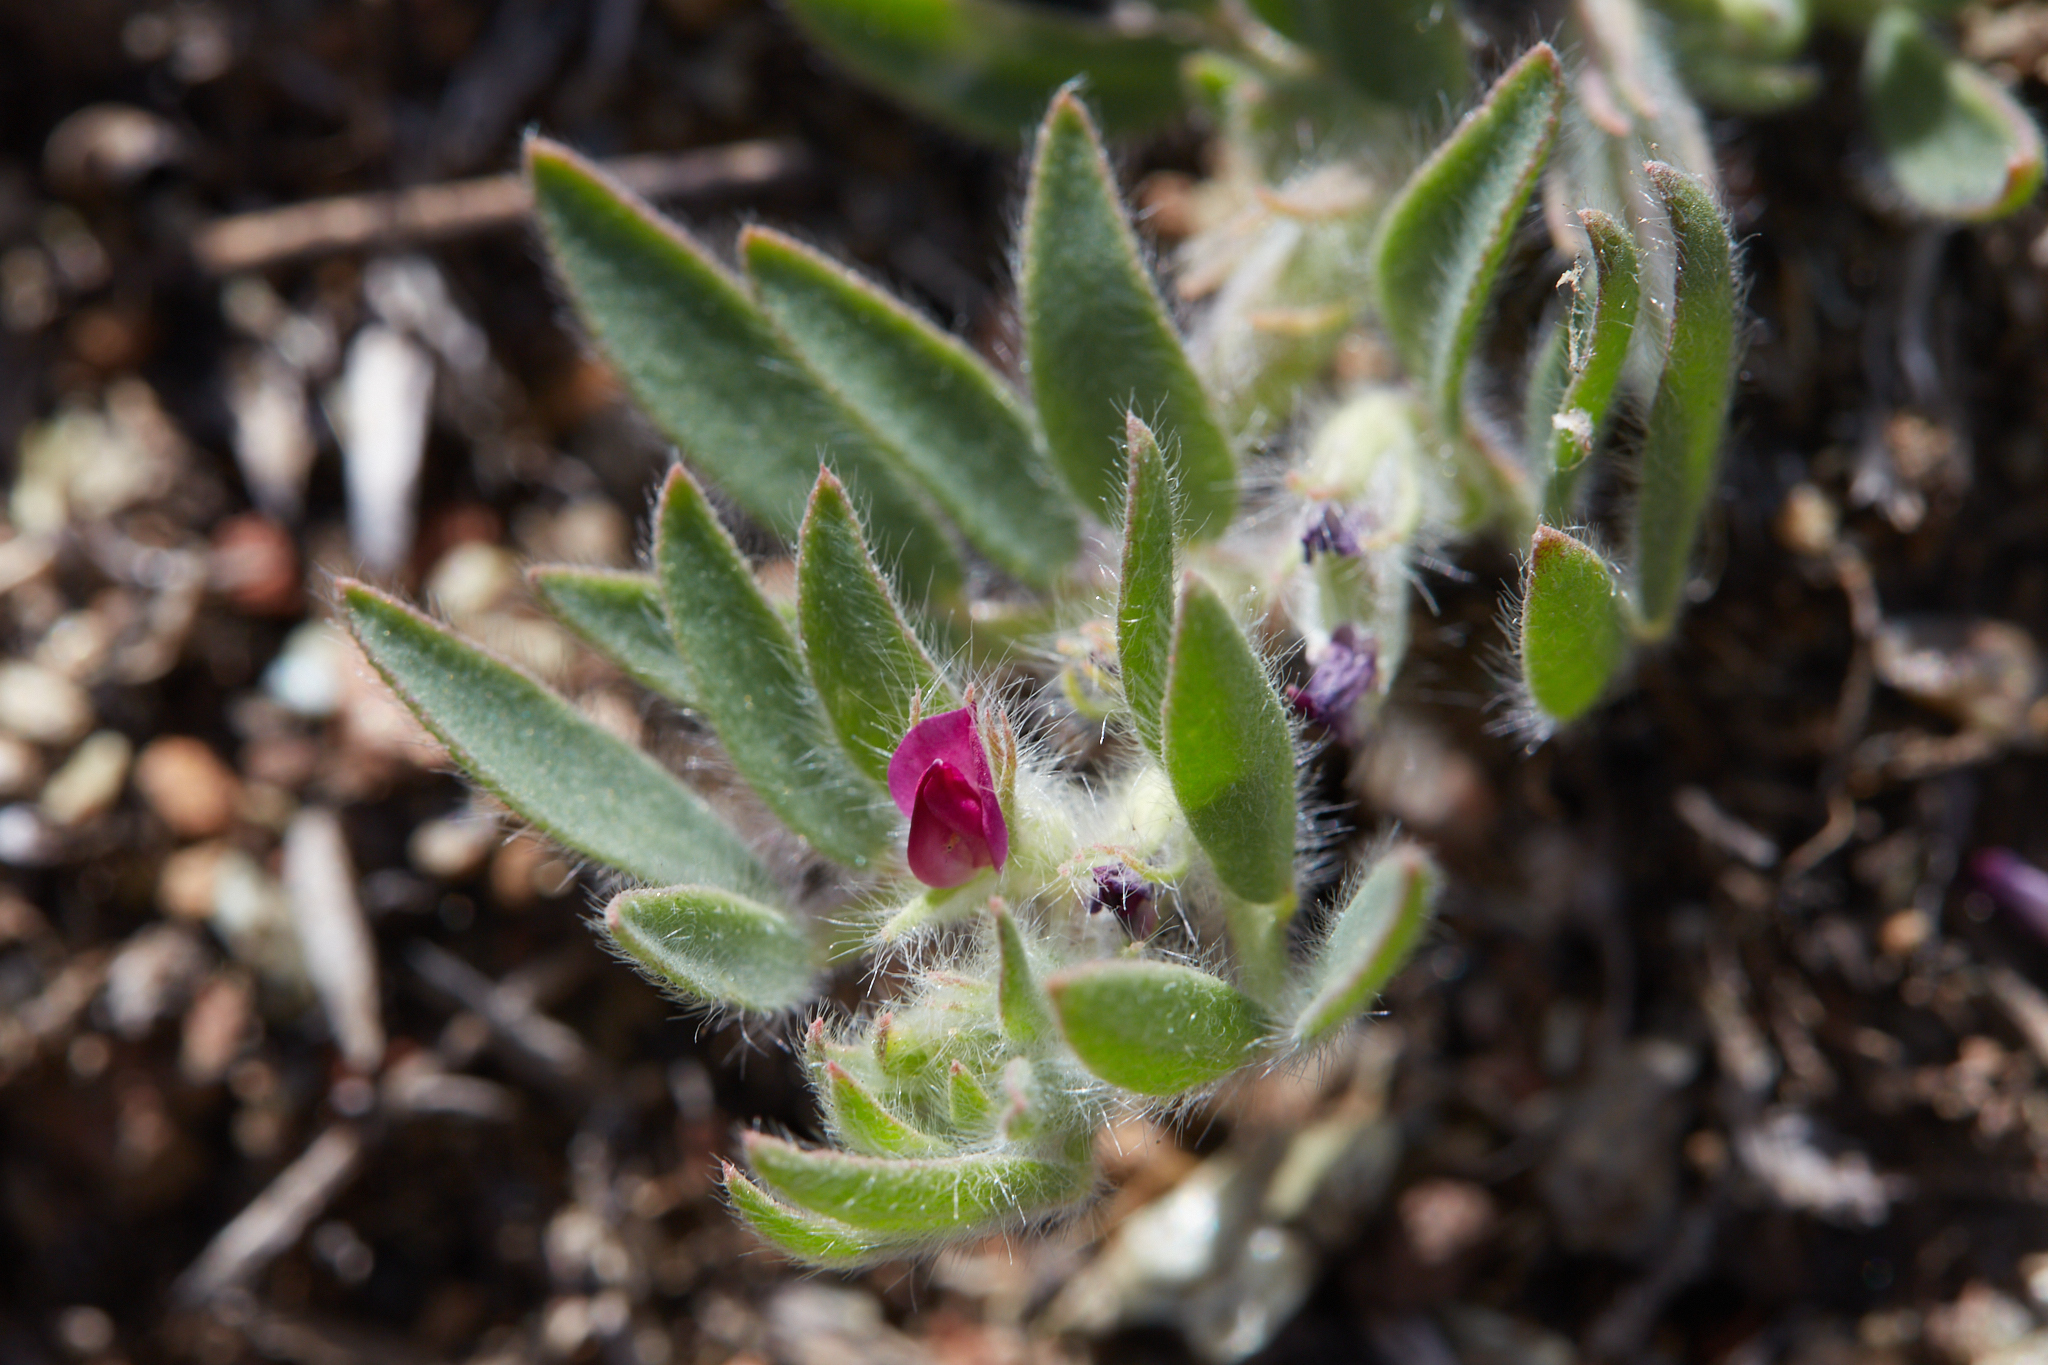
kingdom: Plantae
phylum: Tracheophyta
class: Magnoliopsida
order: Fabales
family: Fabaceae
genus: Acmispon
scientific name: Acmispon rubriflorus
